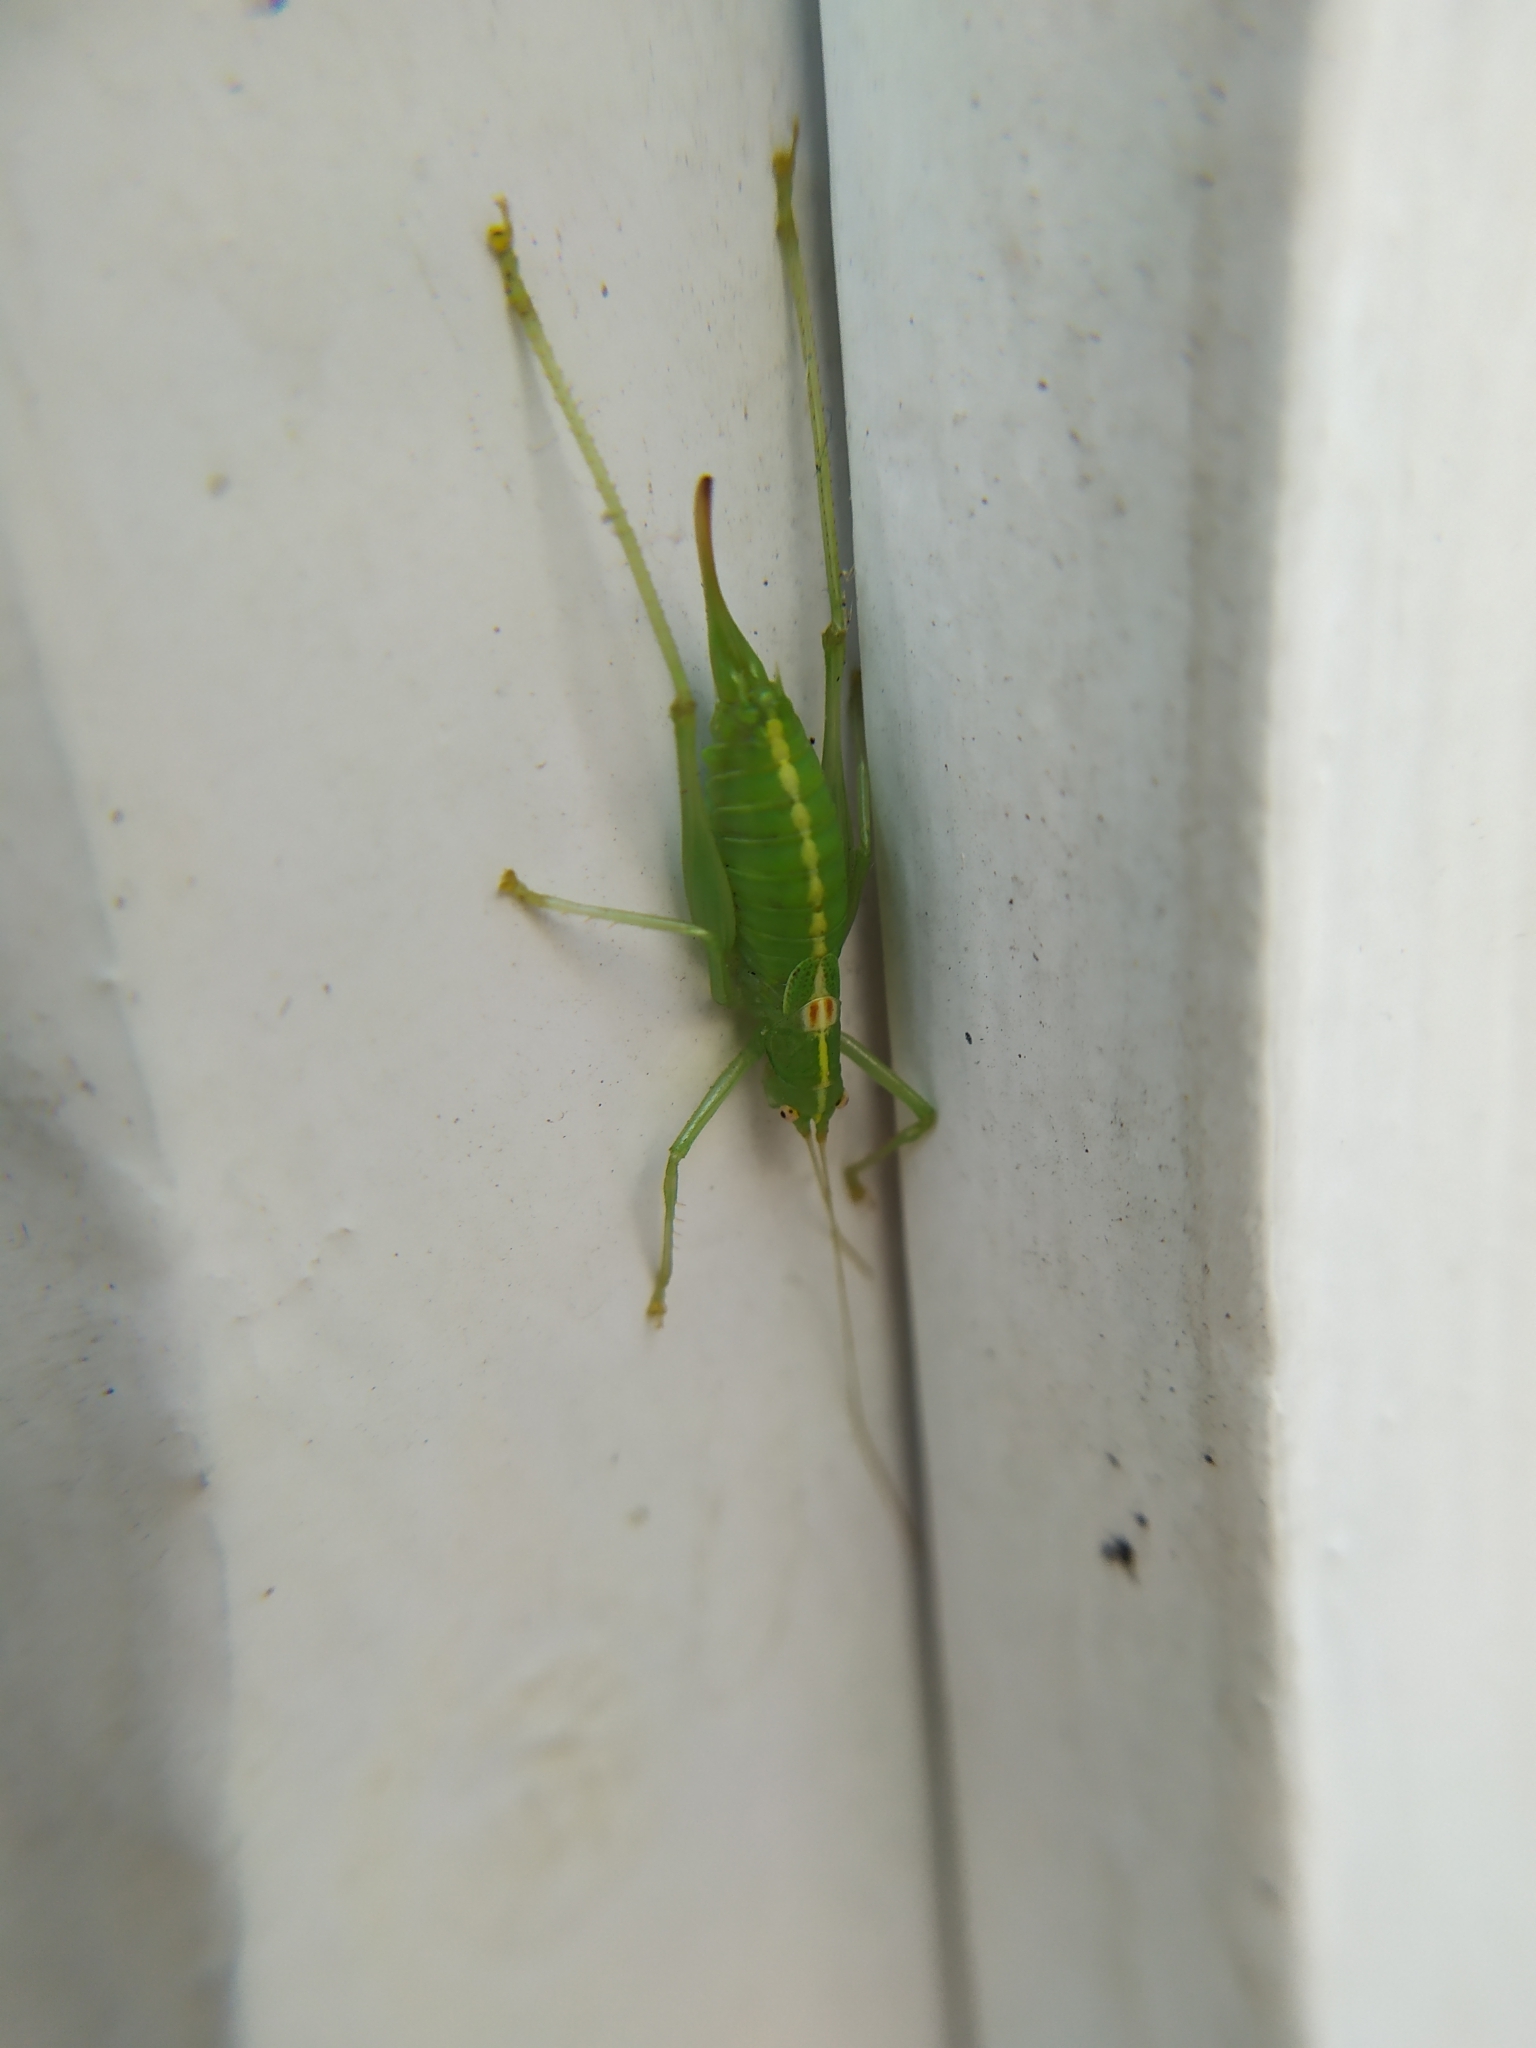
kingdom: Animalia
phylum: Arthropoda
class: Insecta
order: Orthoptera
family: Tettigoniidae
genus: Meconema
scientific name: Meconema meridionale
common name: Southern oak bush-cricket
